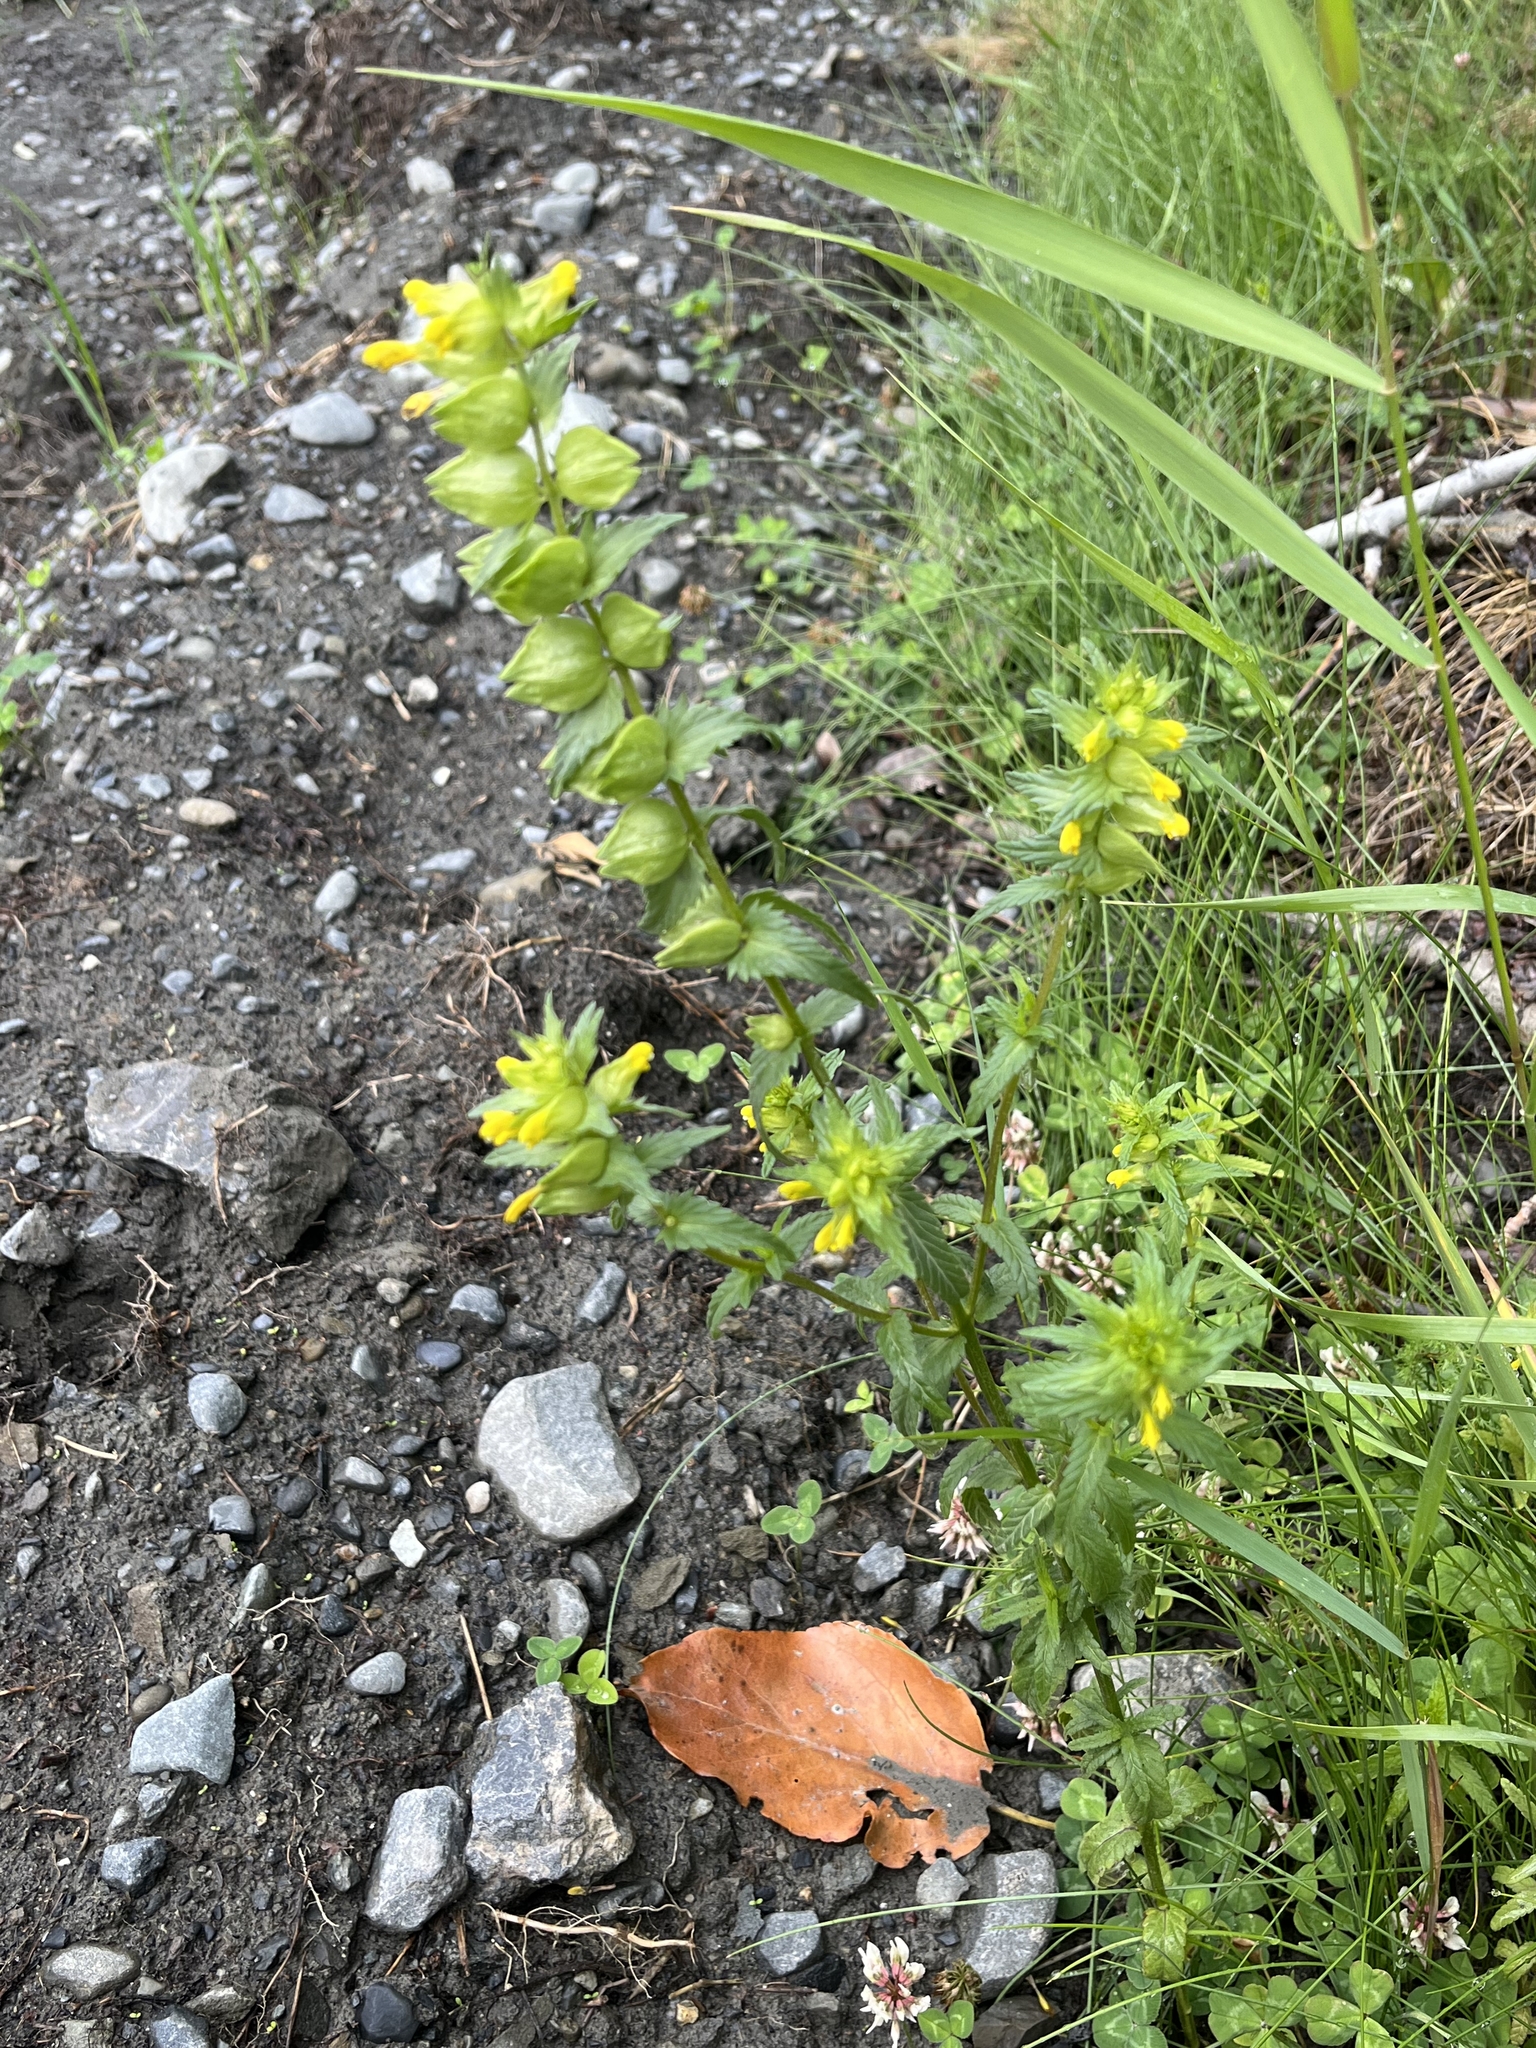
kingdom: Plantae
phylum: Tracheophyta
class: Magnoliopsida
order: Lamiales
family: Orobanchaceae
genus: Rhinanthus
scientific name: Rhinanthus minor
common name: Yellow-rattle
